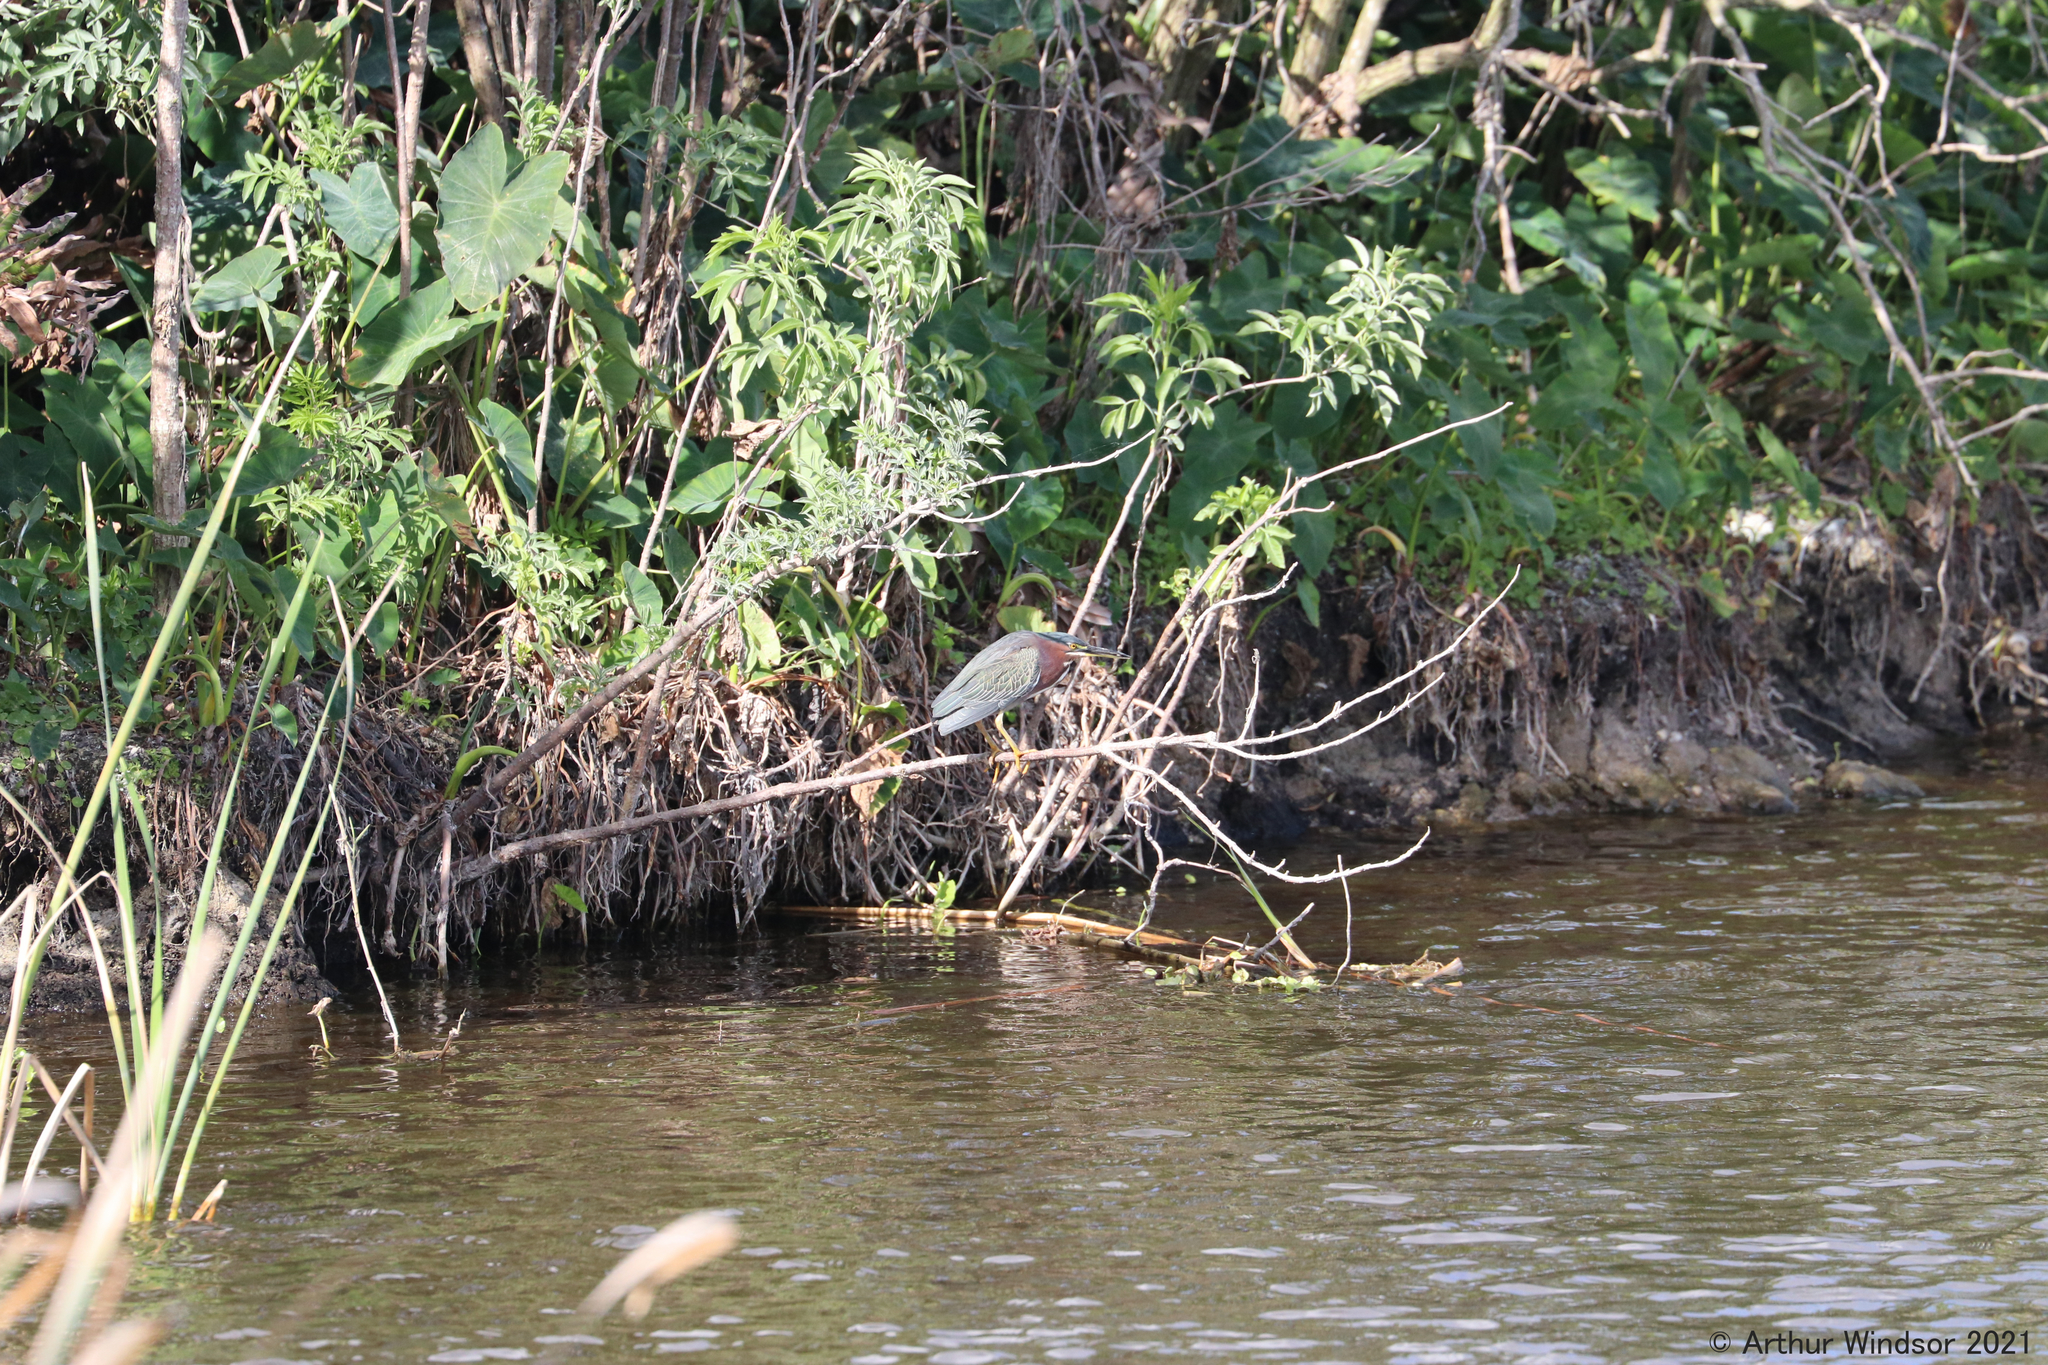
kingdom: Animalia
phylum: Chordata
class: Aves
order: Pelecaniformes
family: Ardeidae
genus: Butorides
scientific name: Butorides virescens
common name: Green heron
